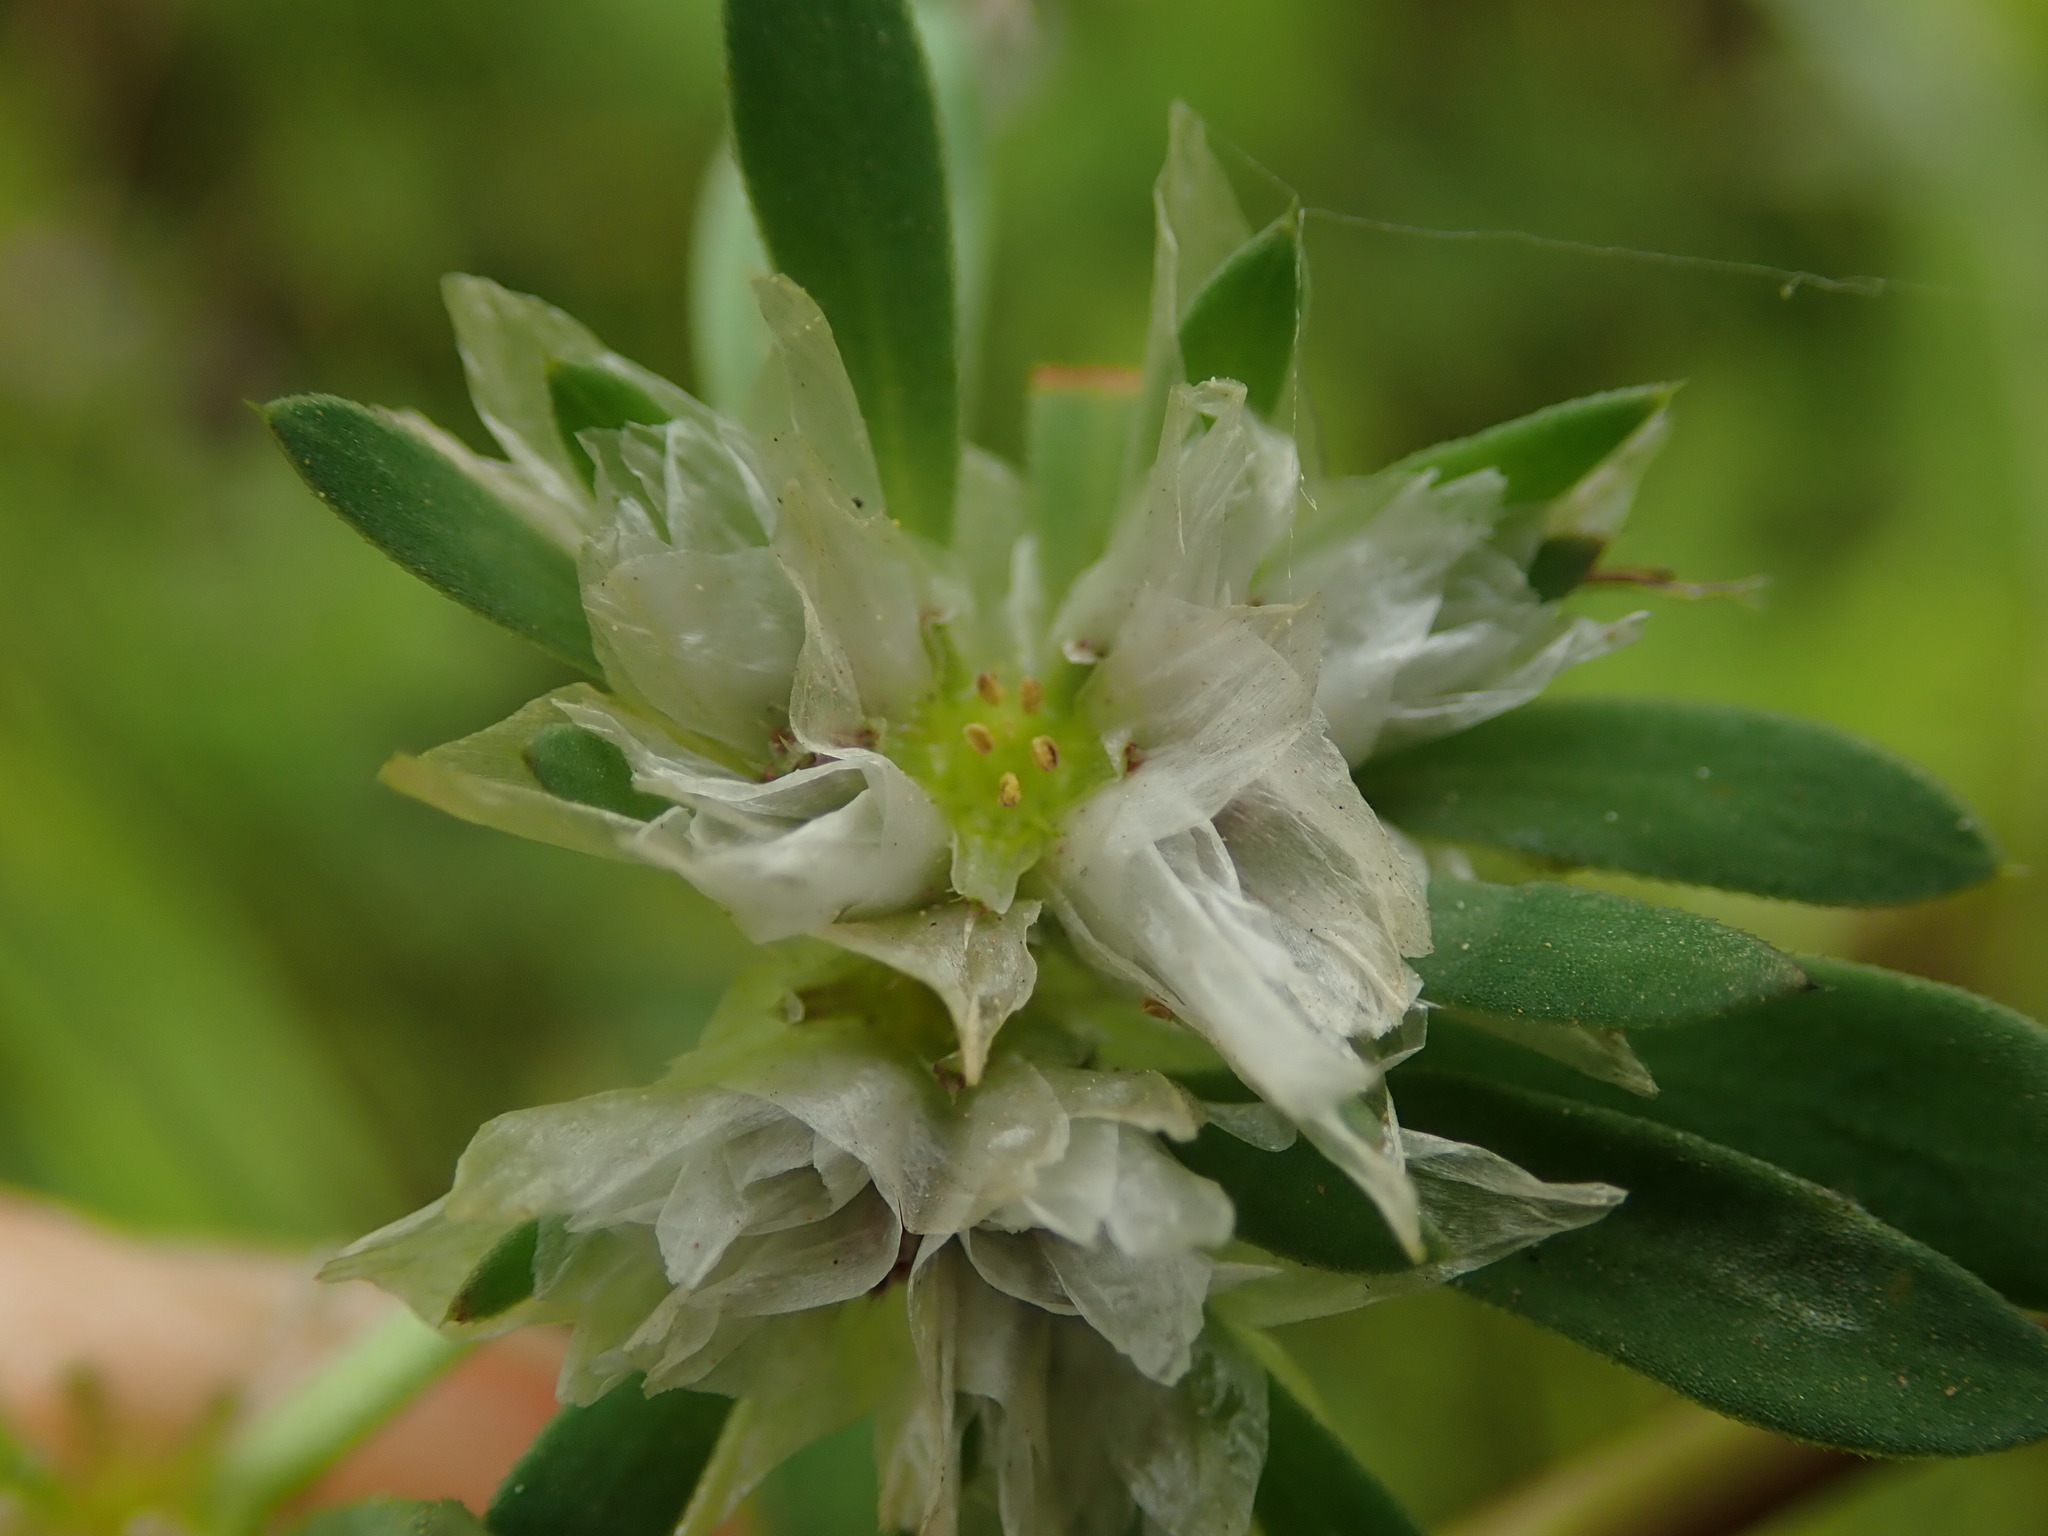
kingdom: Plantae
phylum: Tracheophyta
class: Magnoliopsida
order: Caryophyllales
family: Caryophyllaceae
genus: Paronychia
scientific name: Paronychia argentea
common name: Silver nailroot
